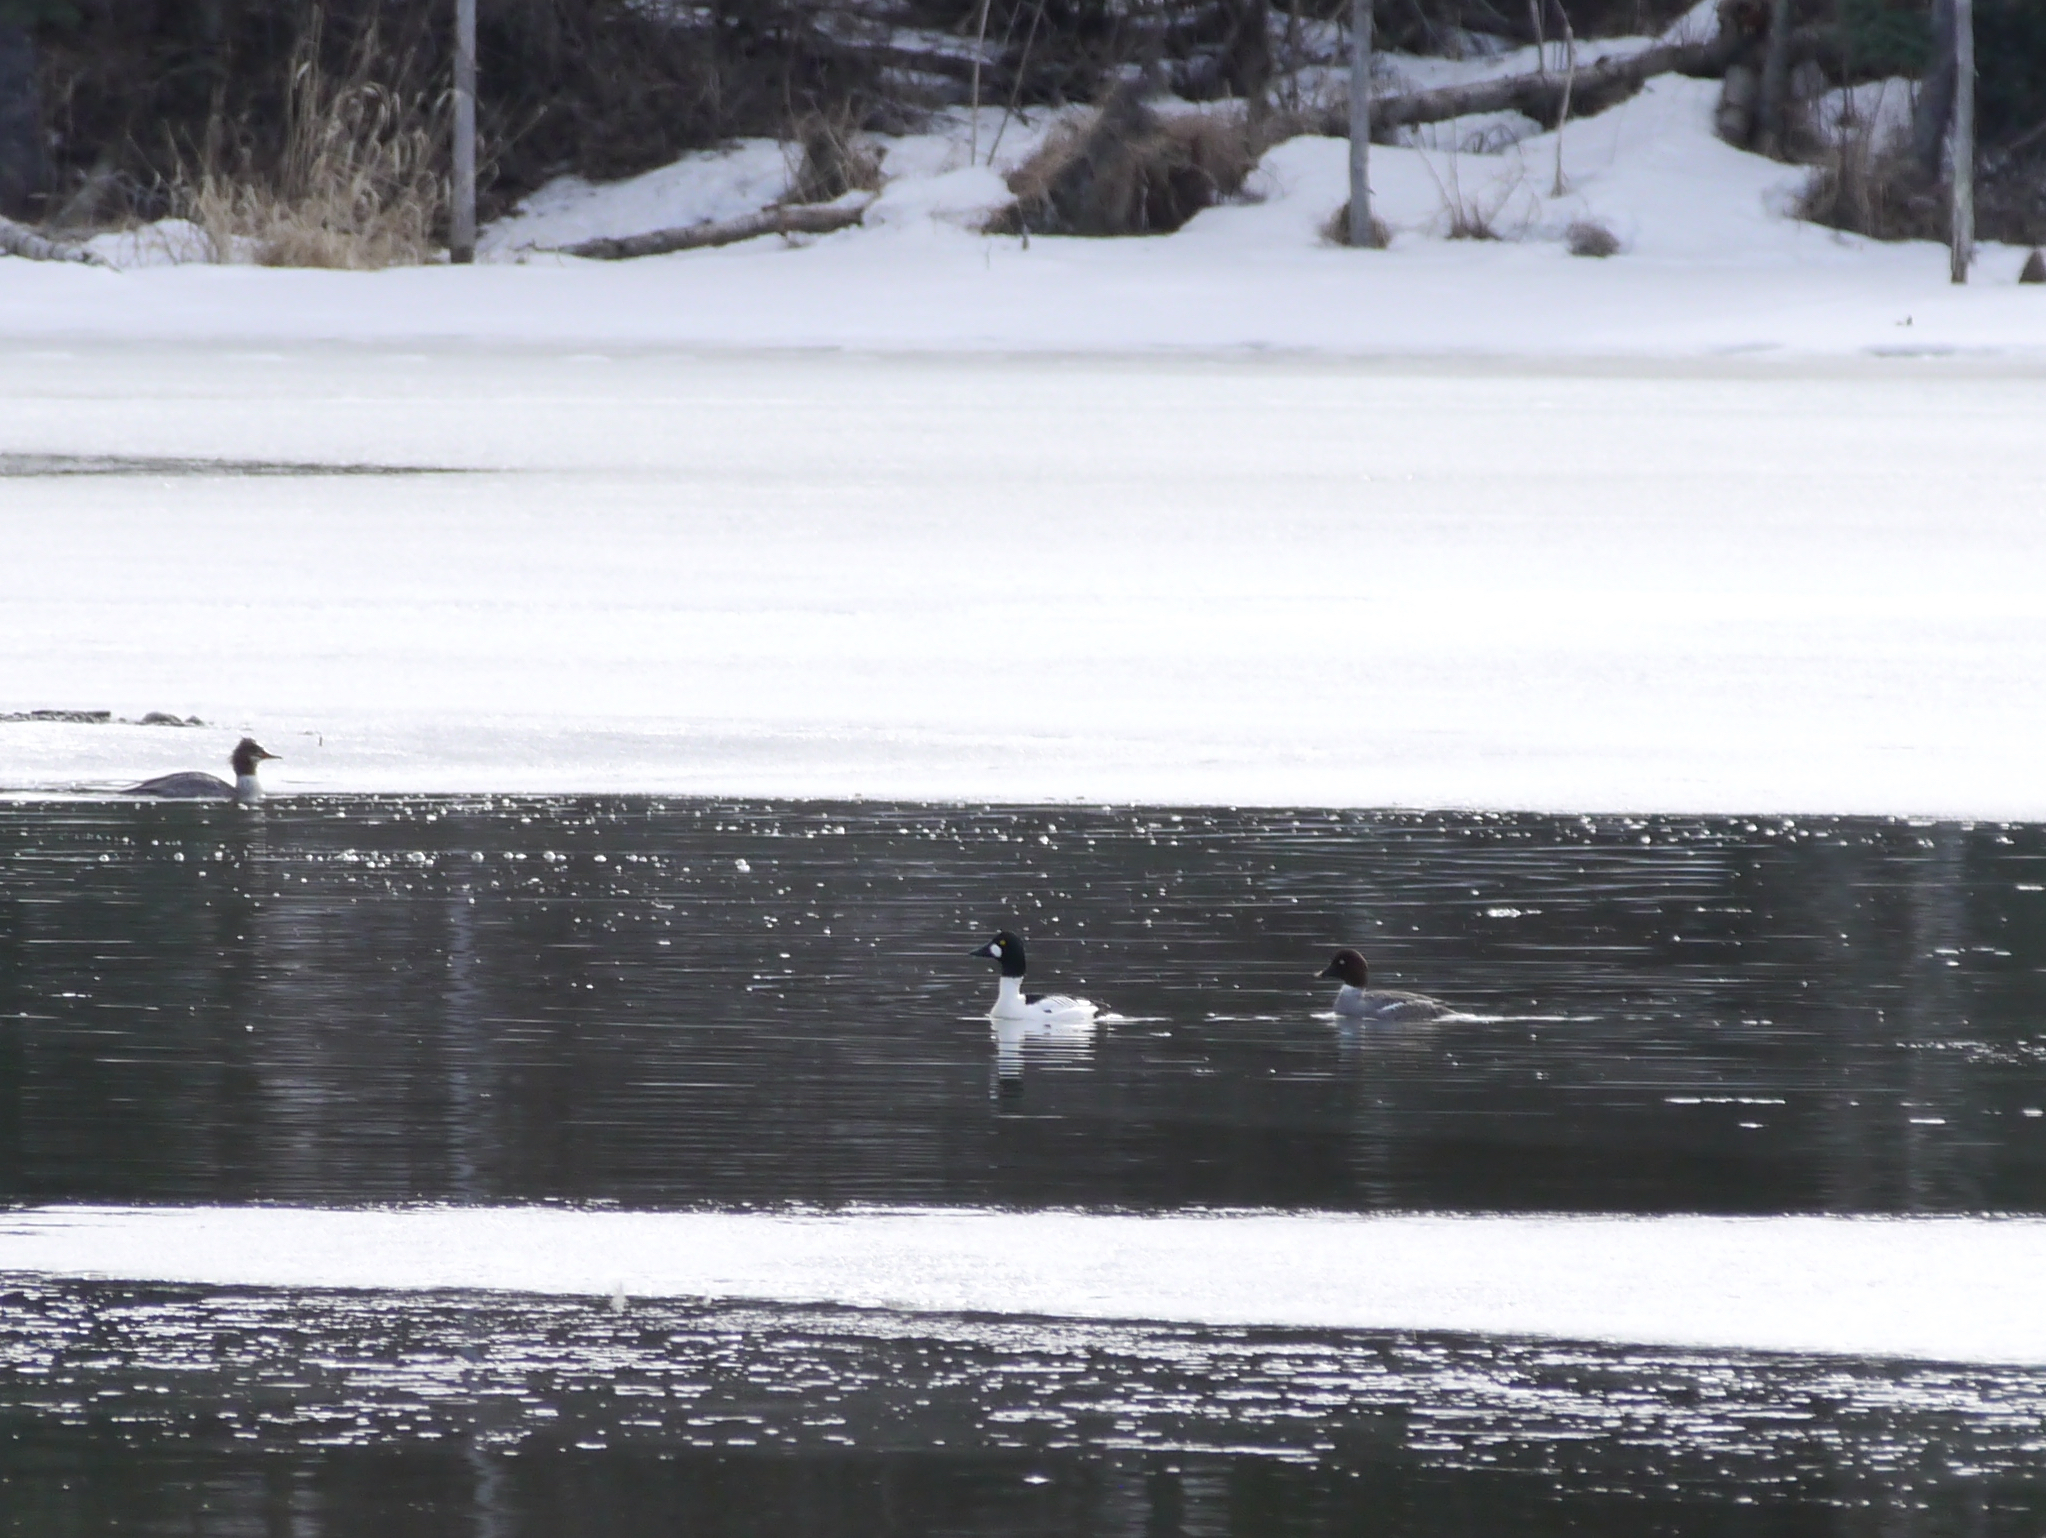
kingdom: Animalia
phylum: Chordata
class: Aves
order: Anseriformes
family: Anatidae
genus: Bucephala
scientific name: Bucephala clangula
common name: Common goldeneye
